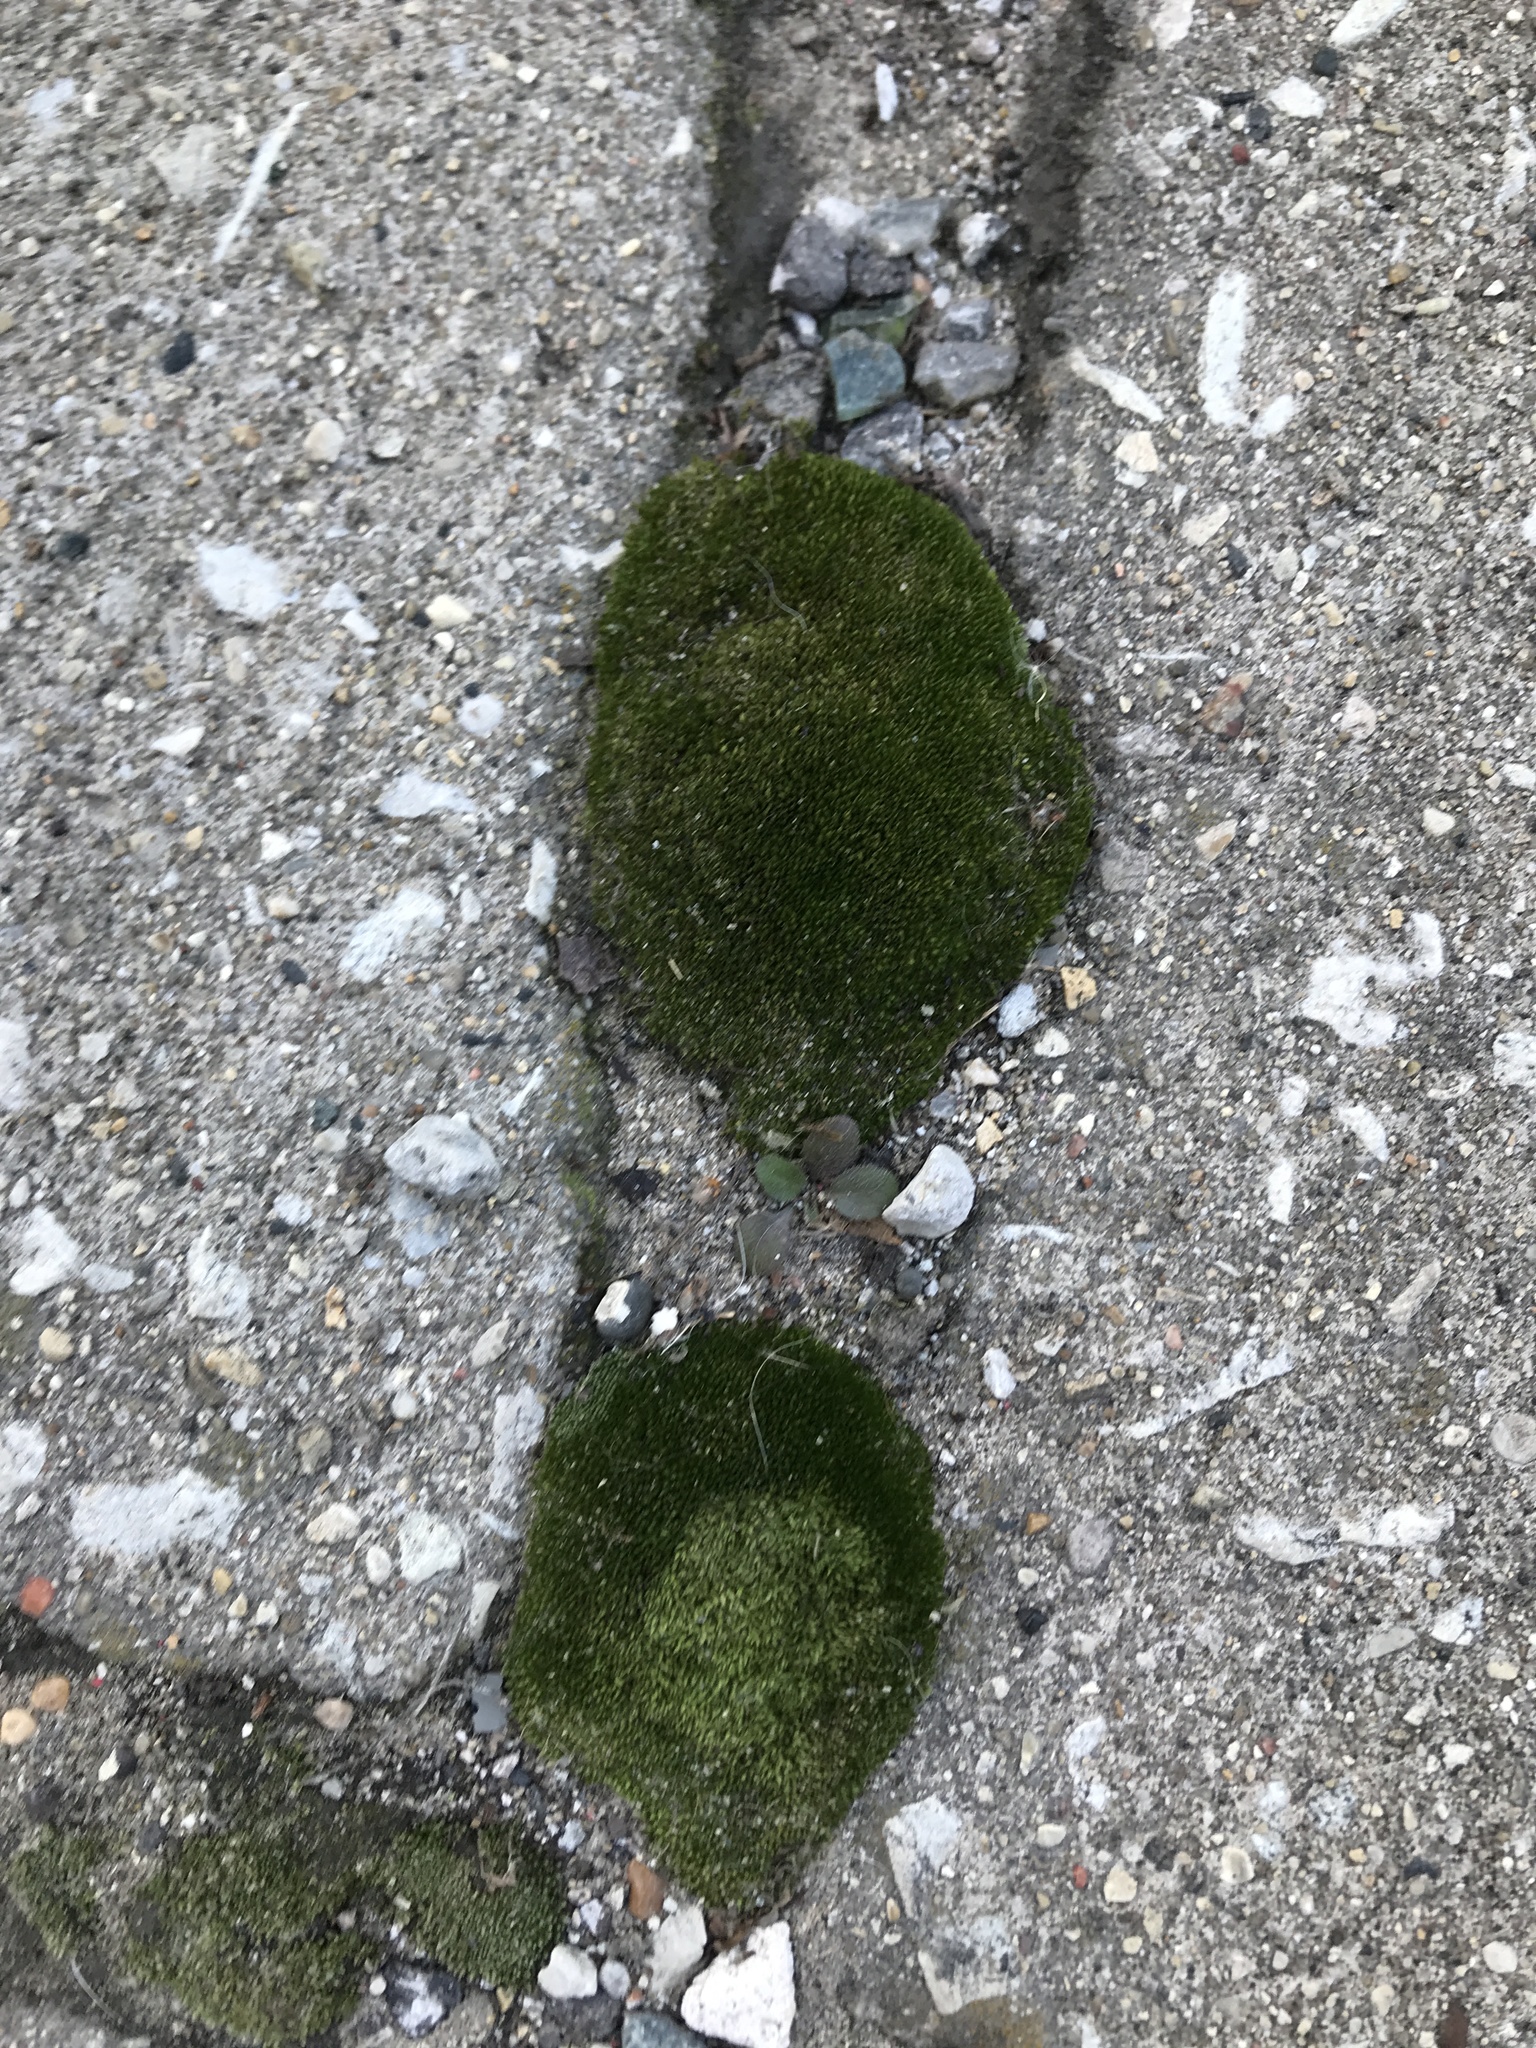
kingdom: Plantae
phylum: Bryophyta
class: Bryopsida
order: Bryales
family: Bryaceae
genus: Bryum
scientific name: Bryum argenteum
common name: Silver-moss
